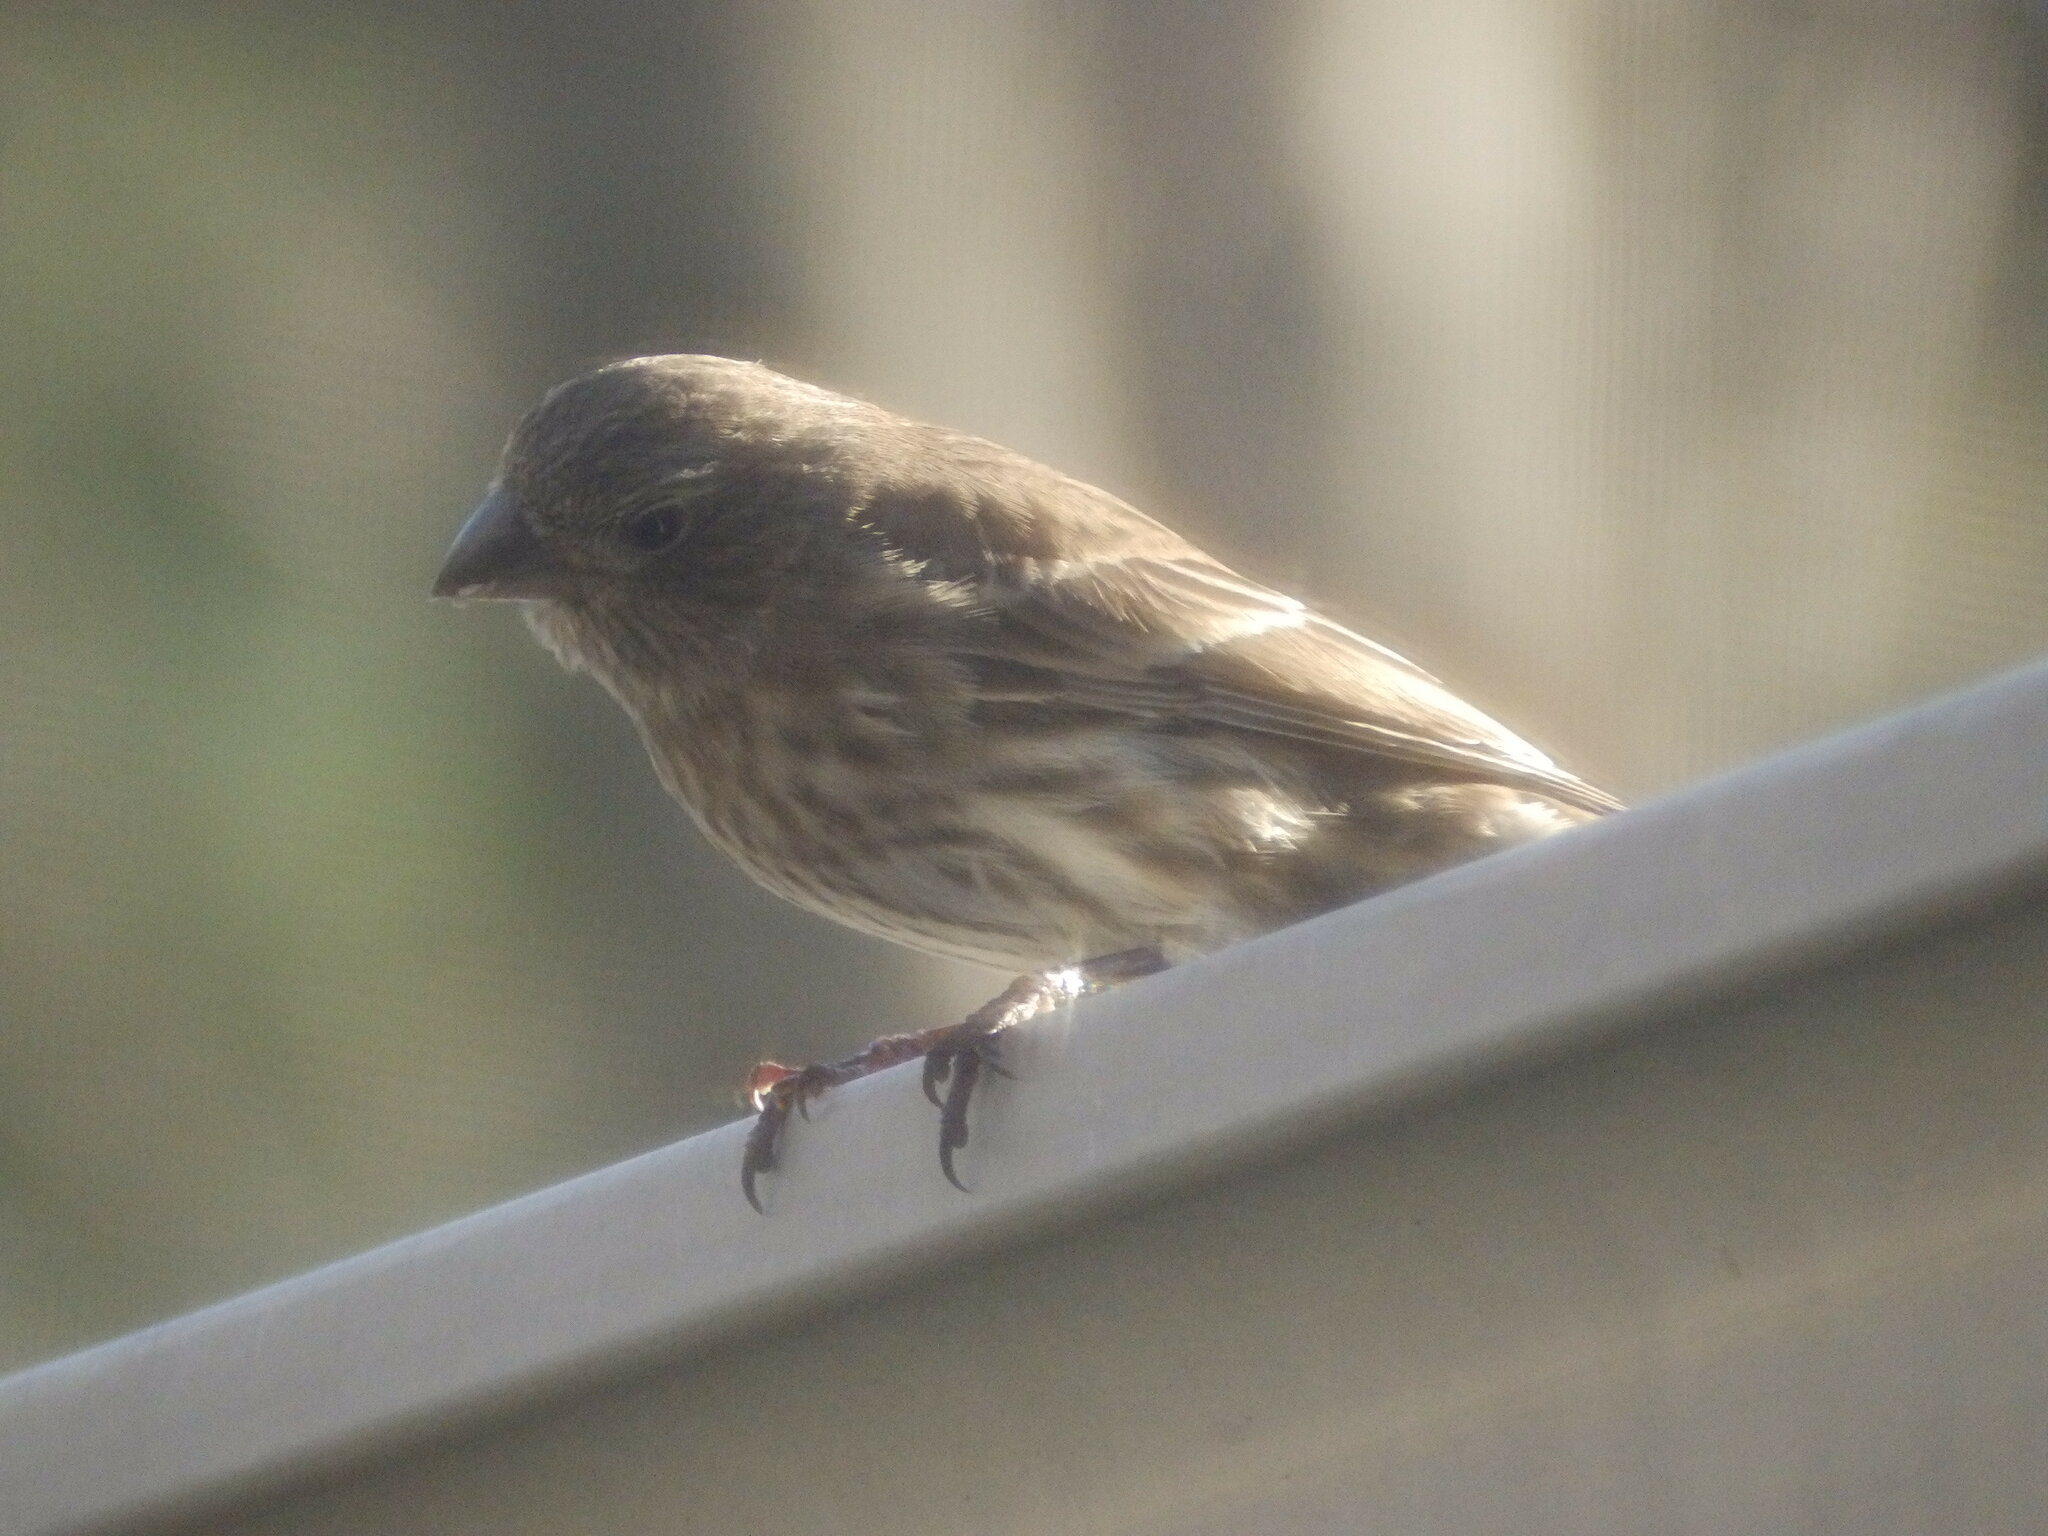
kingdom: Animalia
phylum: Chordata
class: Aves
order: Passeriformes
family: Fringillidae
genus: Haemorhous
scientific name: Haemorhous mexicanus
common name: House finch
